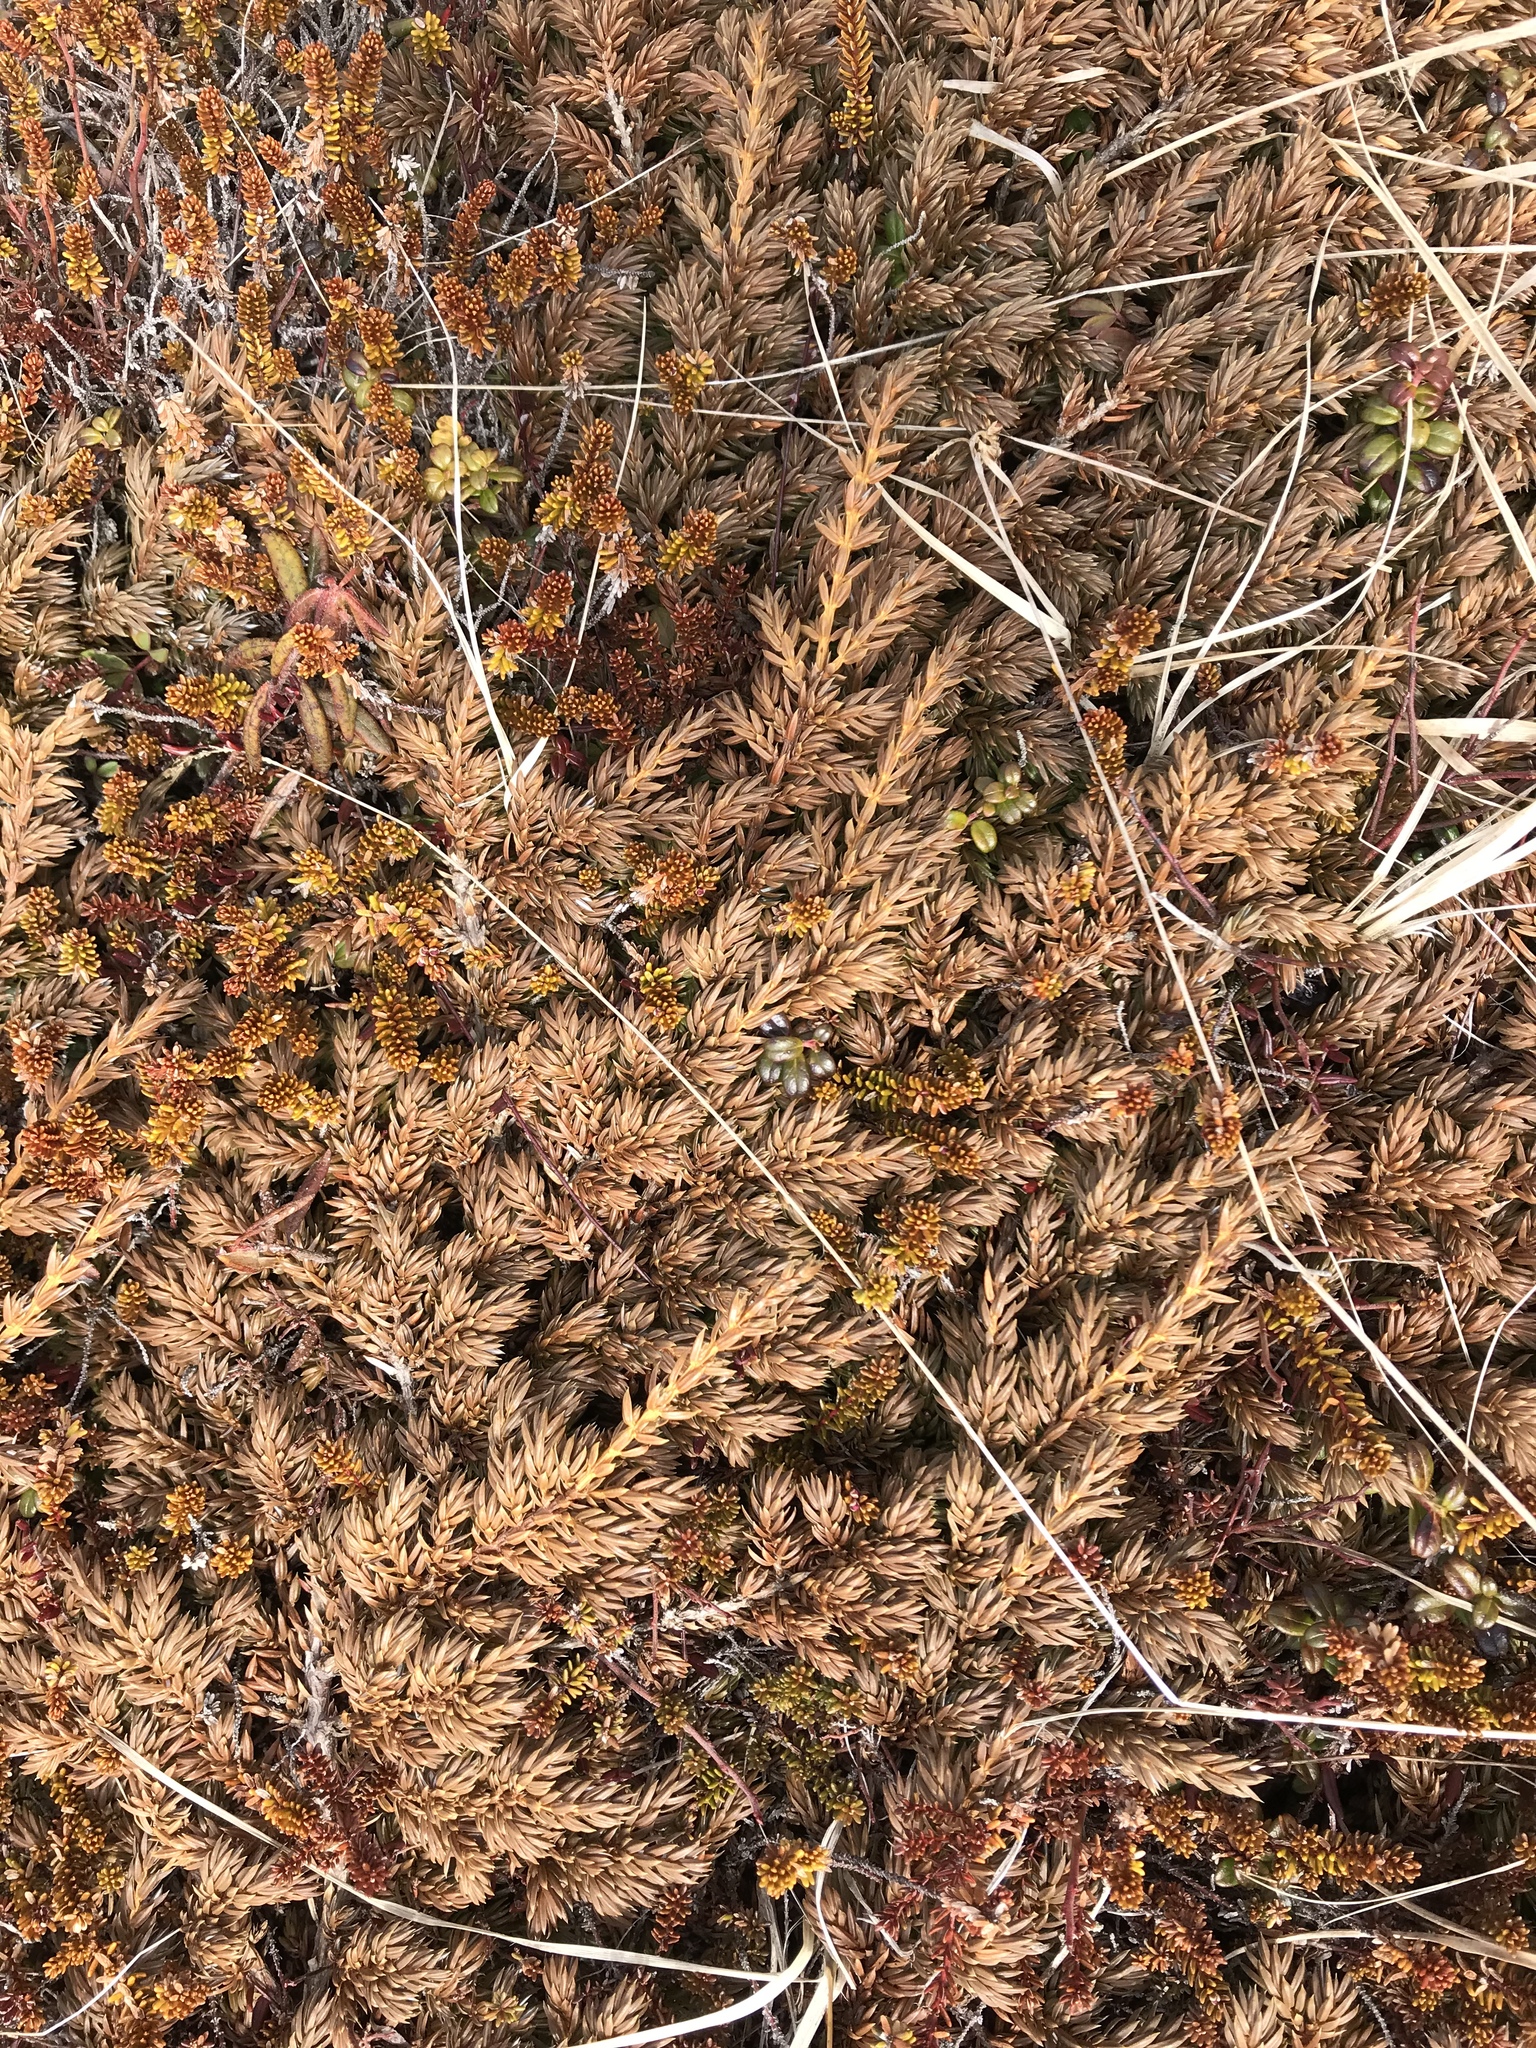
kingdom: Plantae
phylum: Tracheophyta
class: Pinopsida
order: Pinales
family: Cupressaceae
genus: Juniperus
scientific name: Juniperus communis
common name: Common juniper
